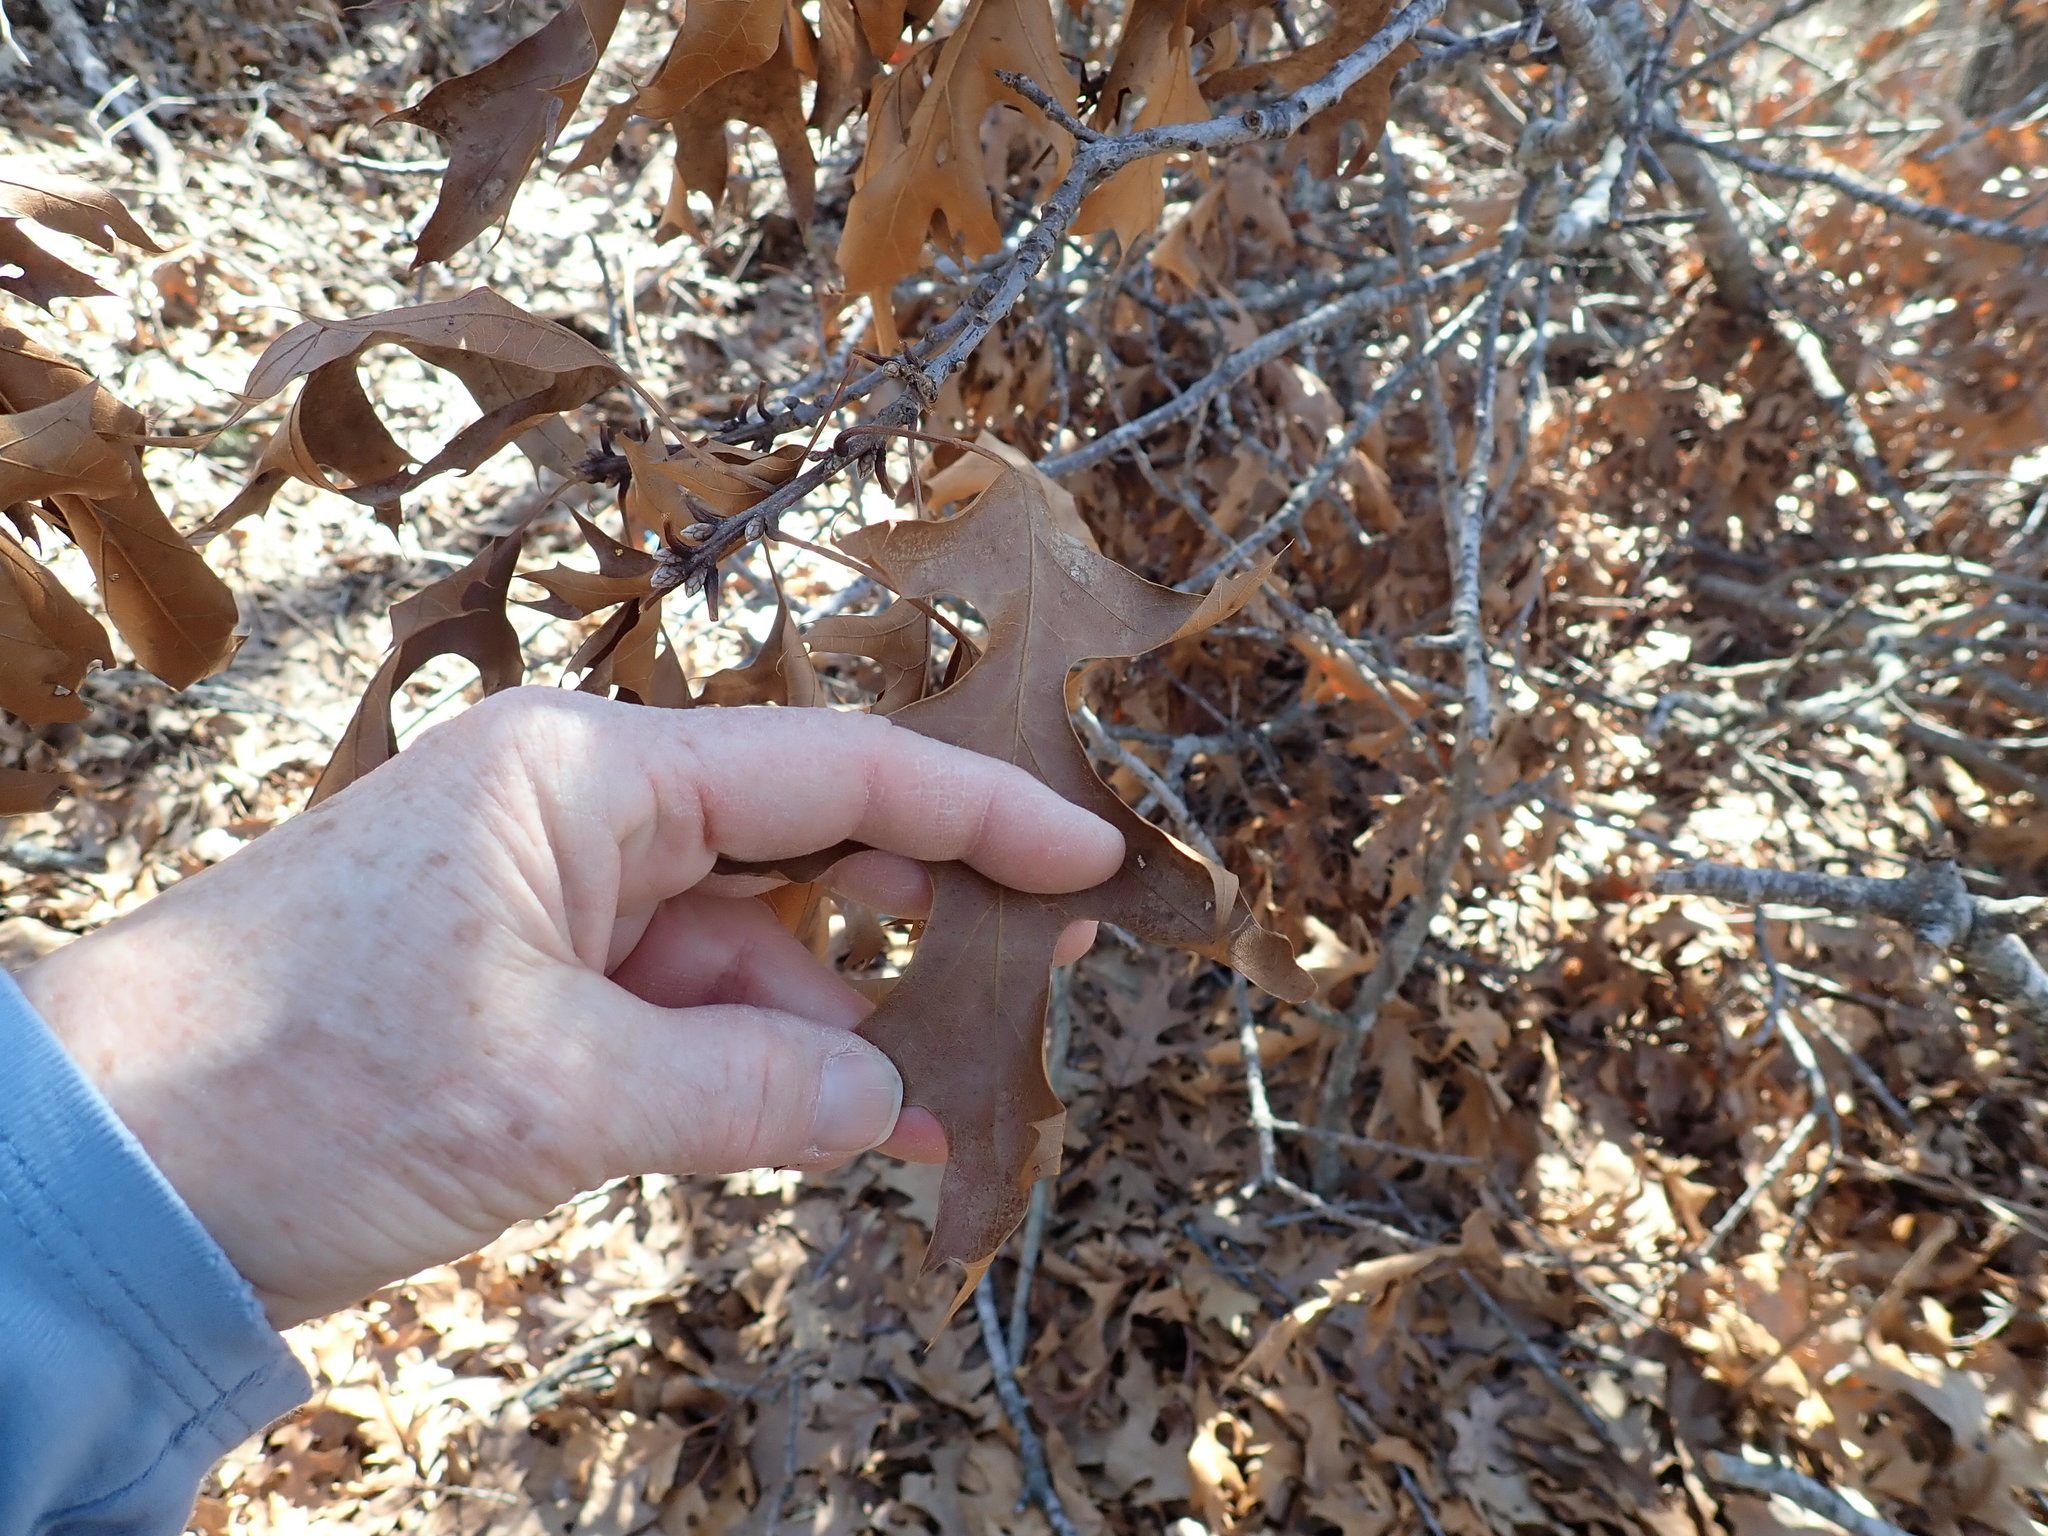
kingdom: Plantae
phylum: Tracheophyta
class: Magnoliopsida
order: Fagales
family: Fagaceae
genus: Quercus
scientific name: Quercus velutina
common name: Black oak
